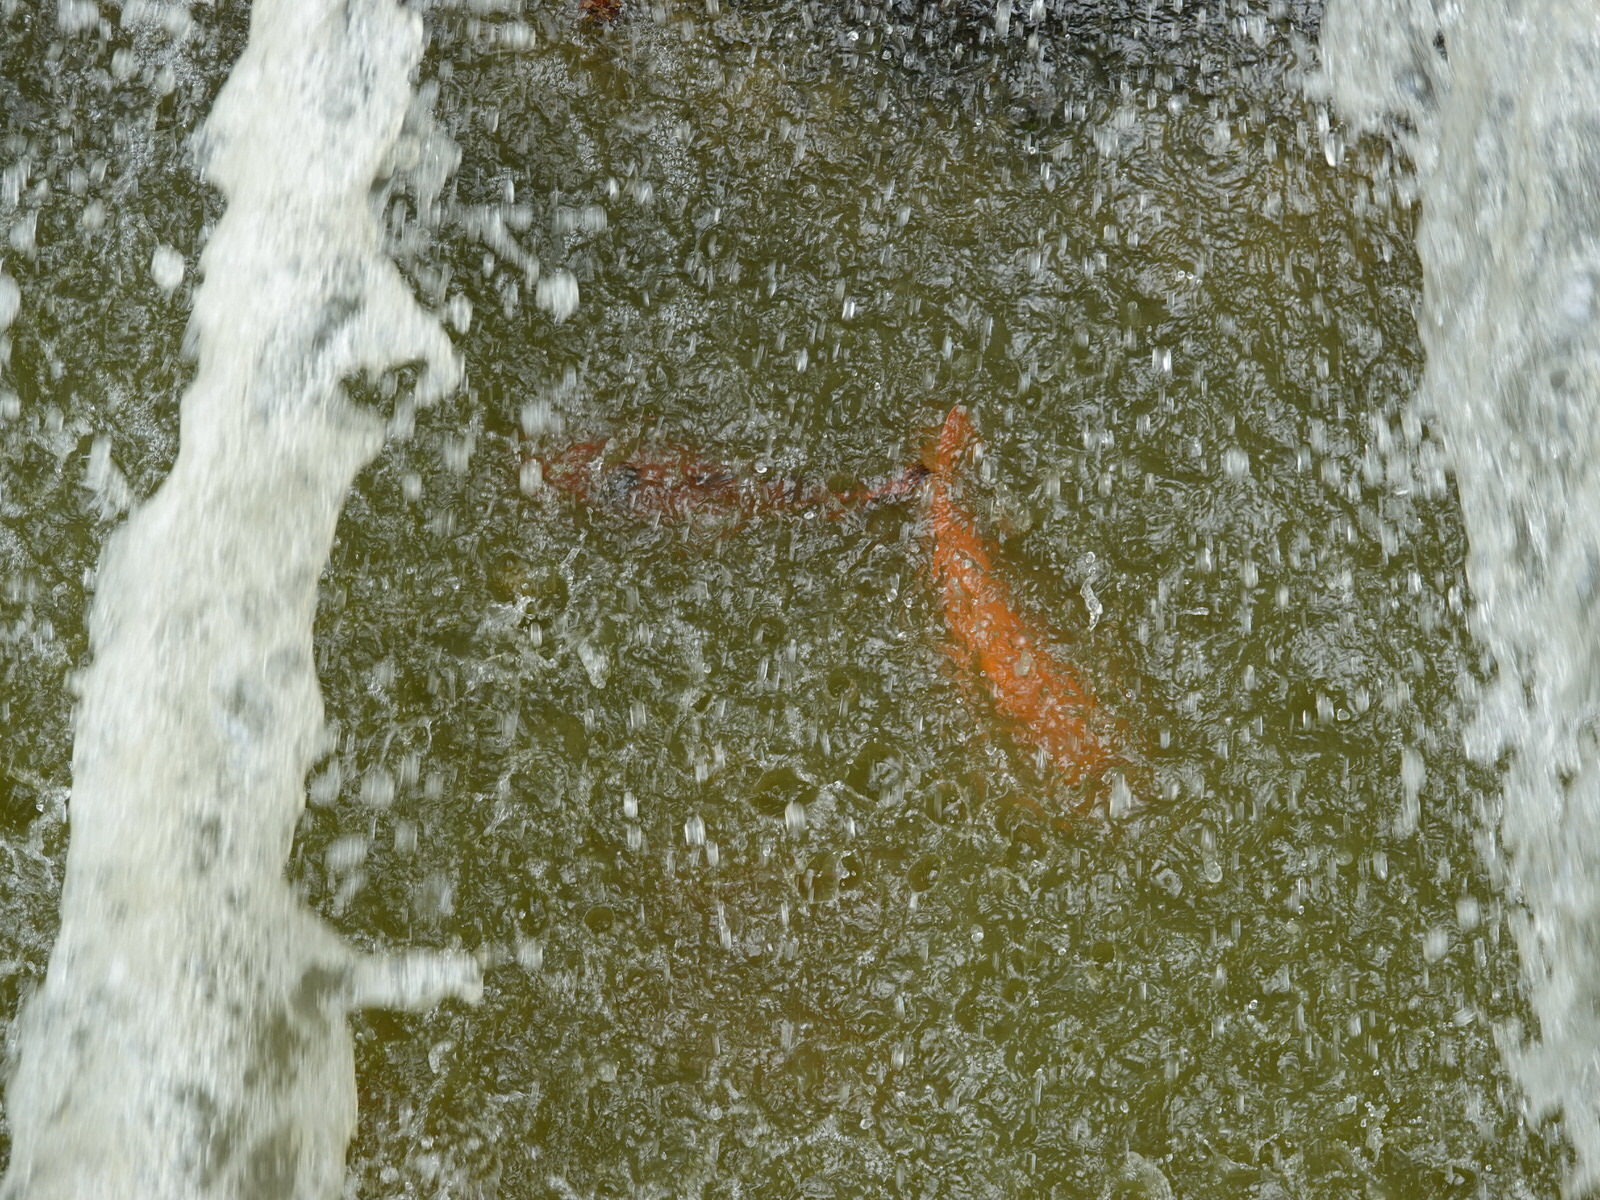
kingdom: Animalia
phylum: Chordata
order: Cypriniformes
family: Cyprinidae
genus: Cyprinus
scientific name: Cyprinus rubrofuscus
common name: Koi
